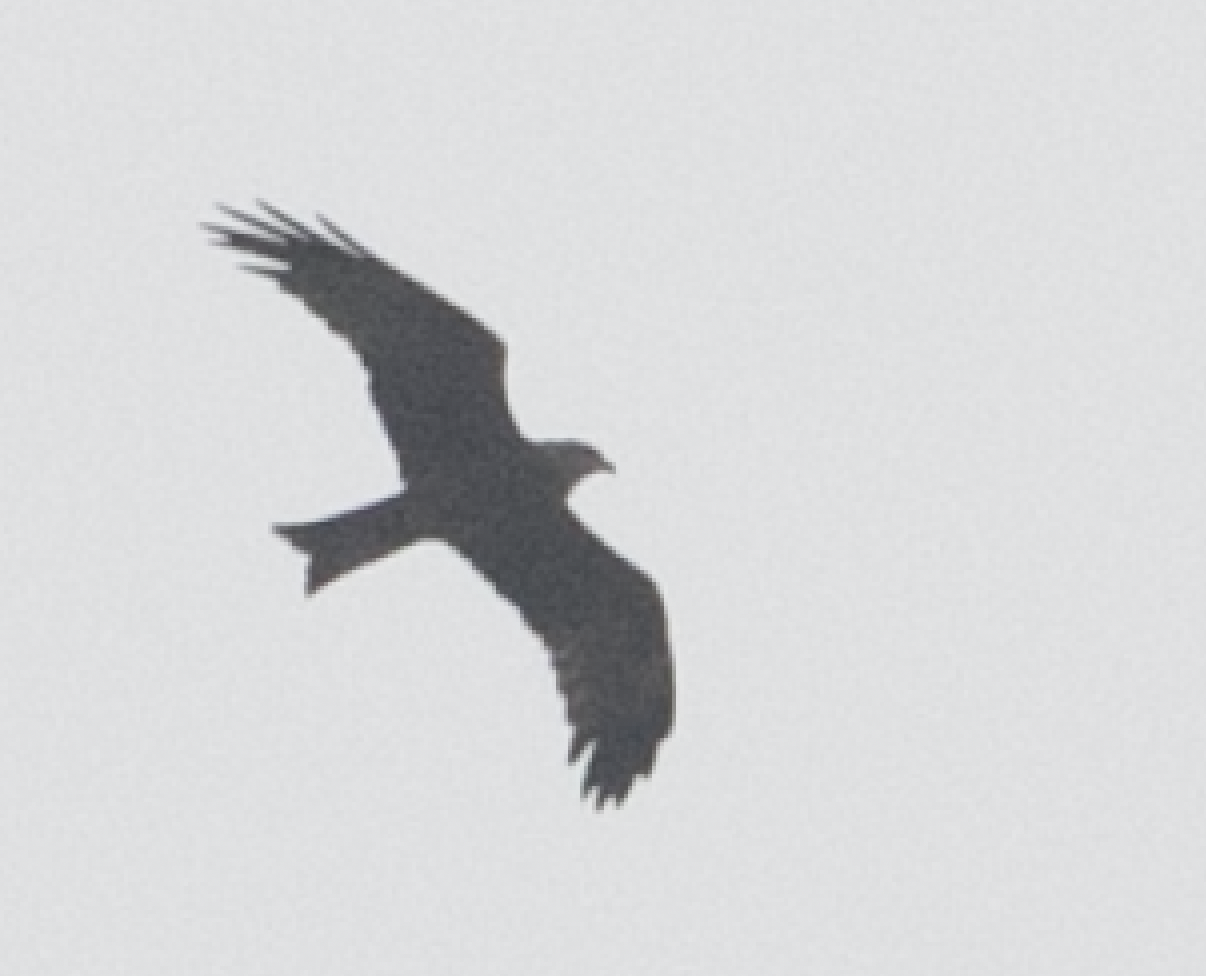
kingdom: Animalia
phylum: Chordata
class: Aves
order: Accipitriformes
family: Accipitridae
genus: Milvus
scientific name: Milvus migrans
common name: Black kite
